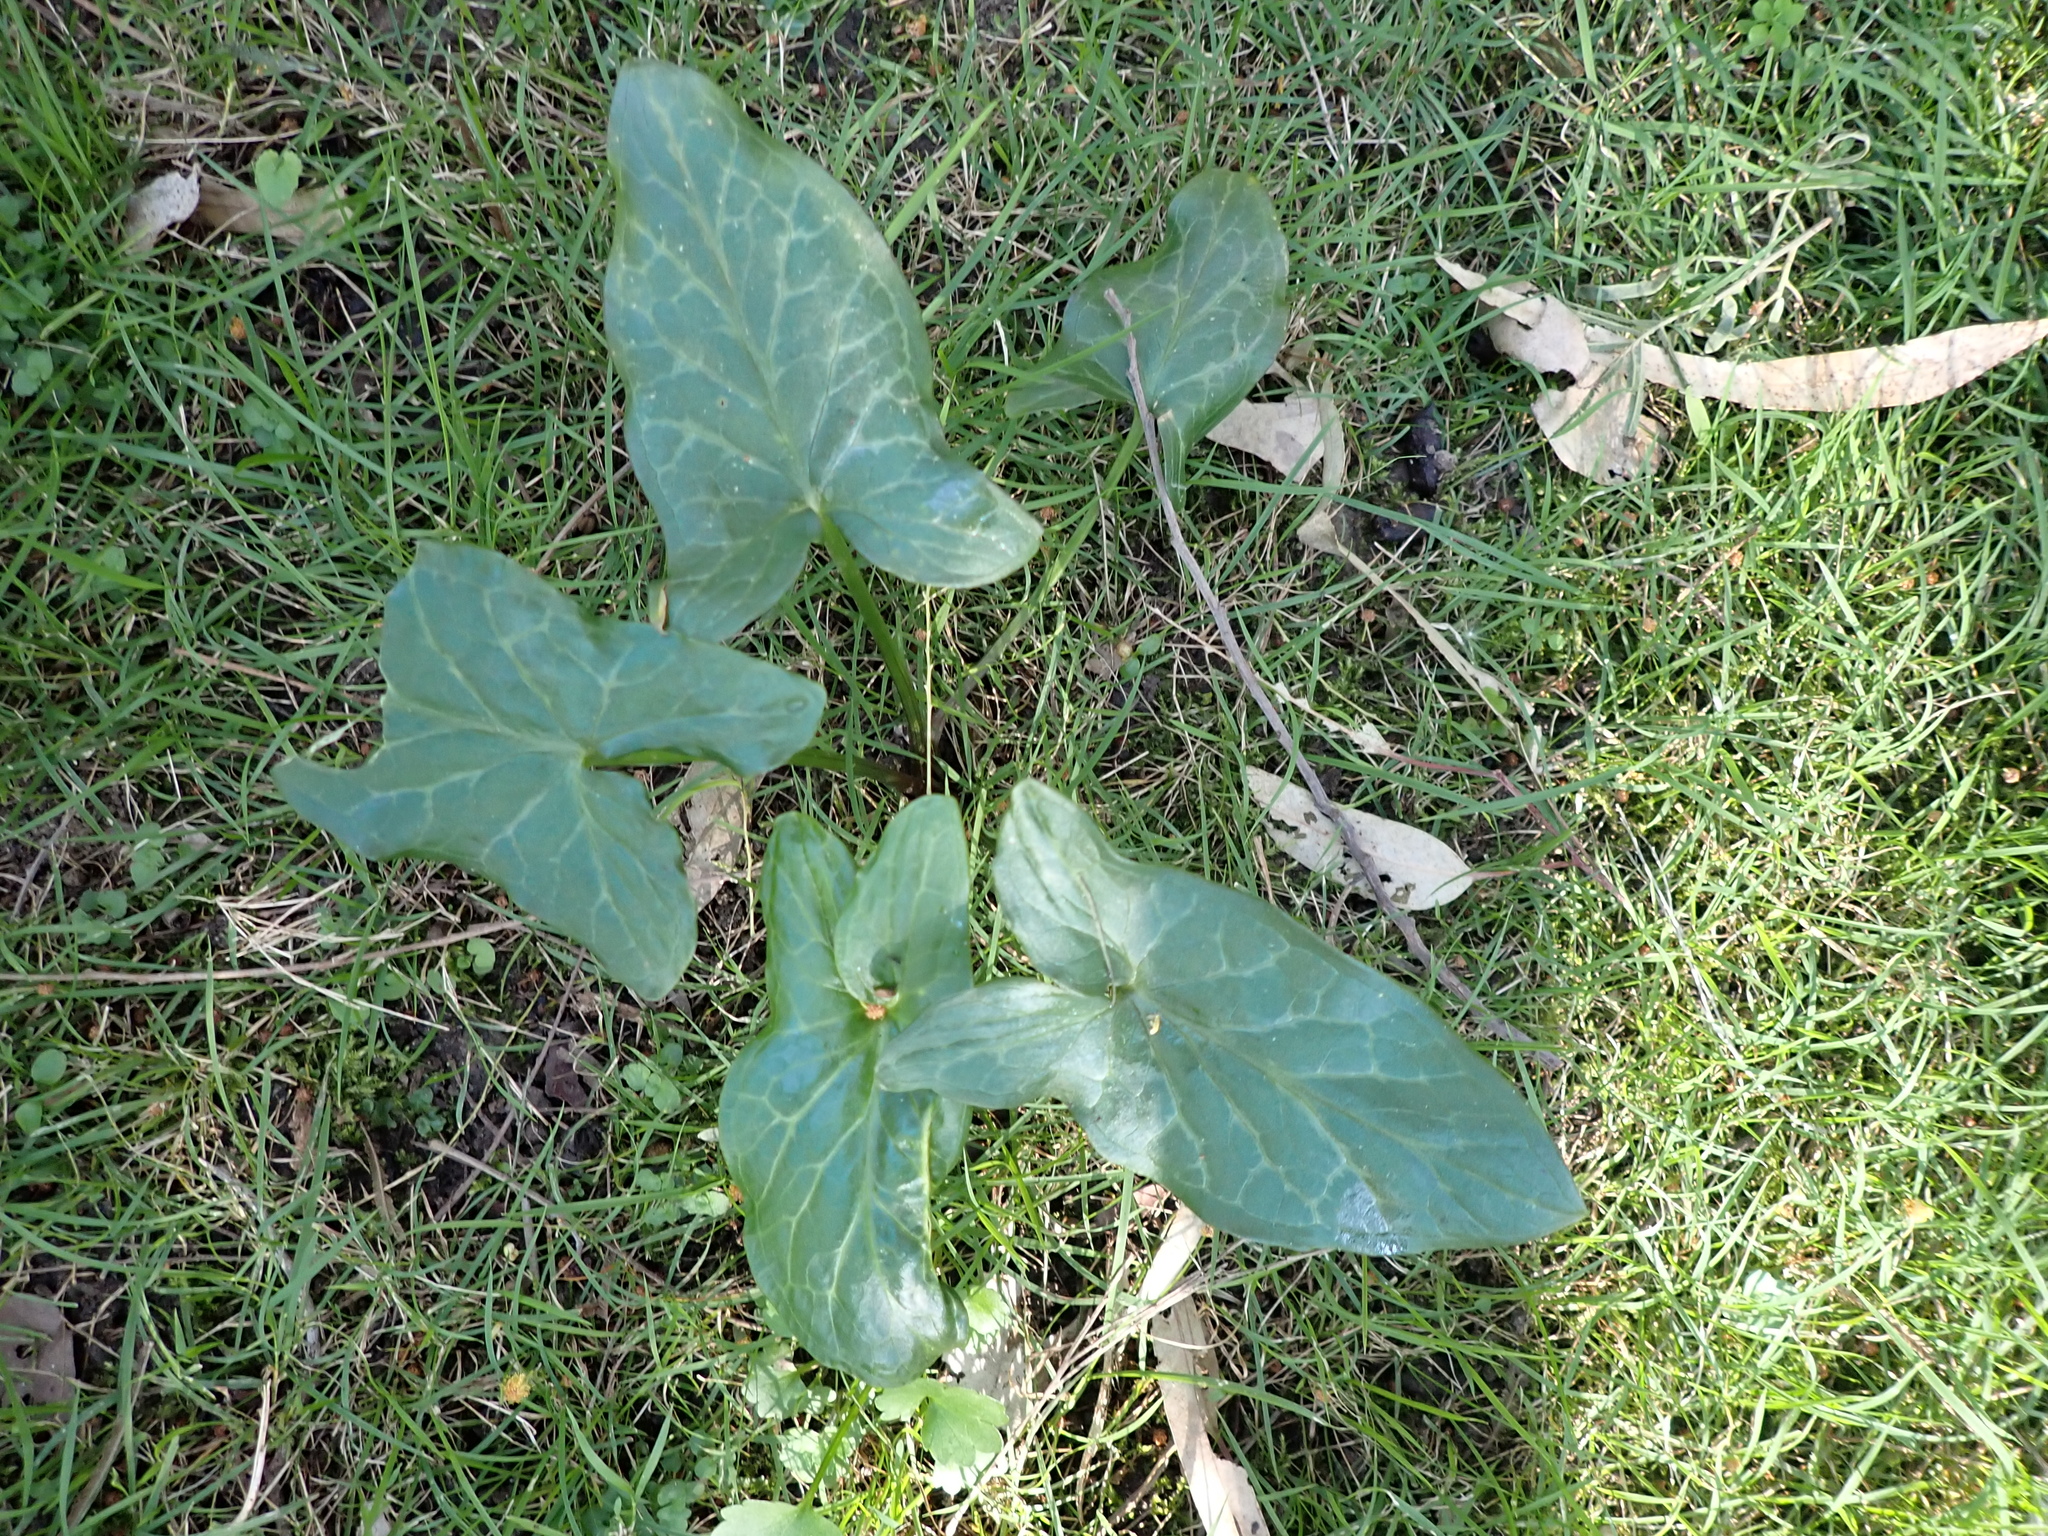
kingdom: Plantae
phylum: Tracheophyta
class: Liliopsida
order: Alismatales
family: Araceae
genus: Arum
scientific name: Arum italicum
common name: Italian lords-and-ladies
